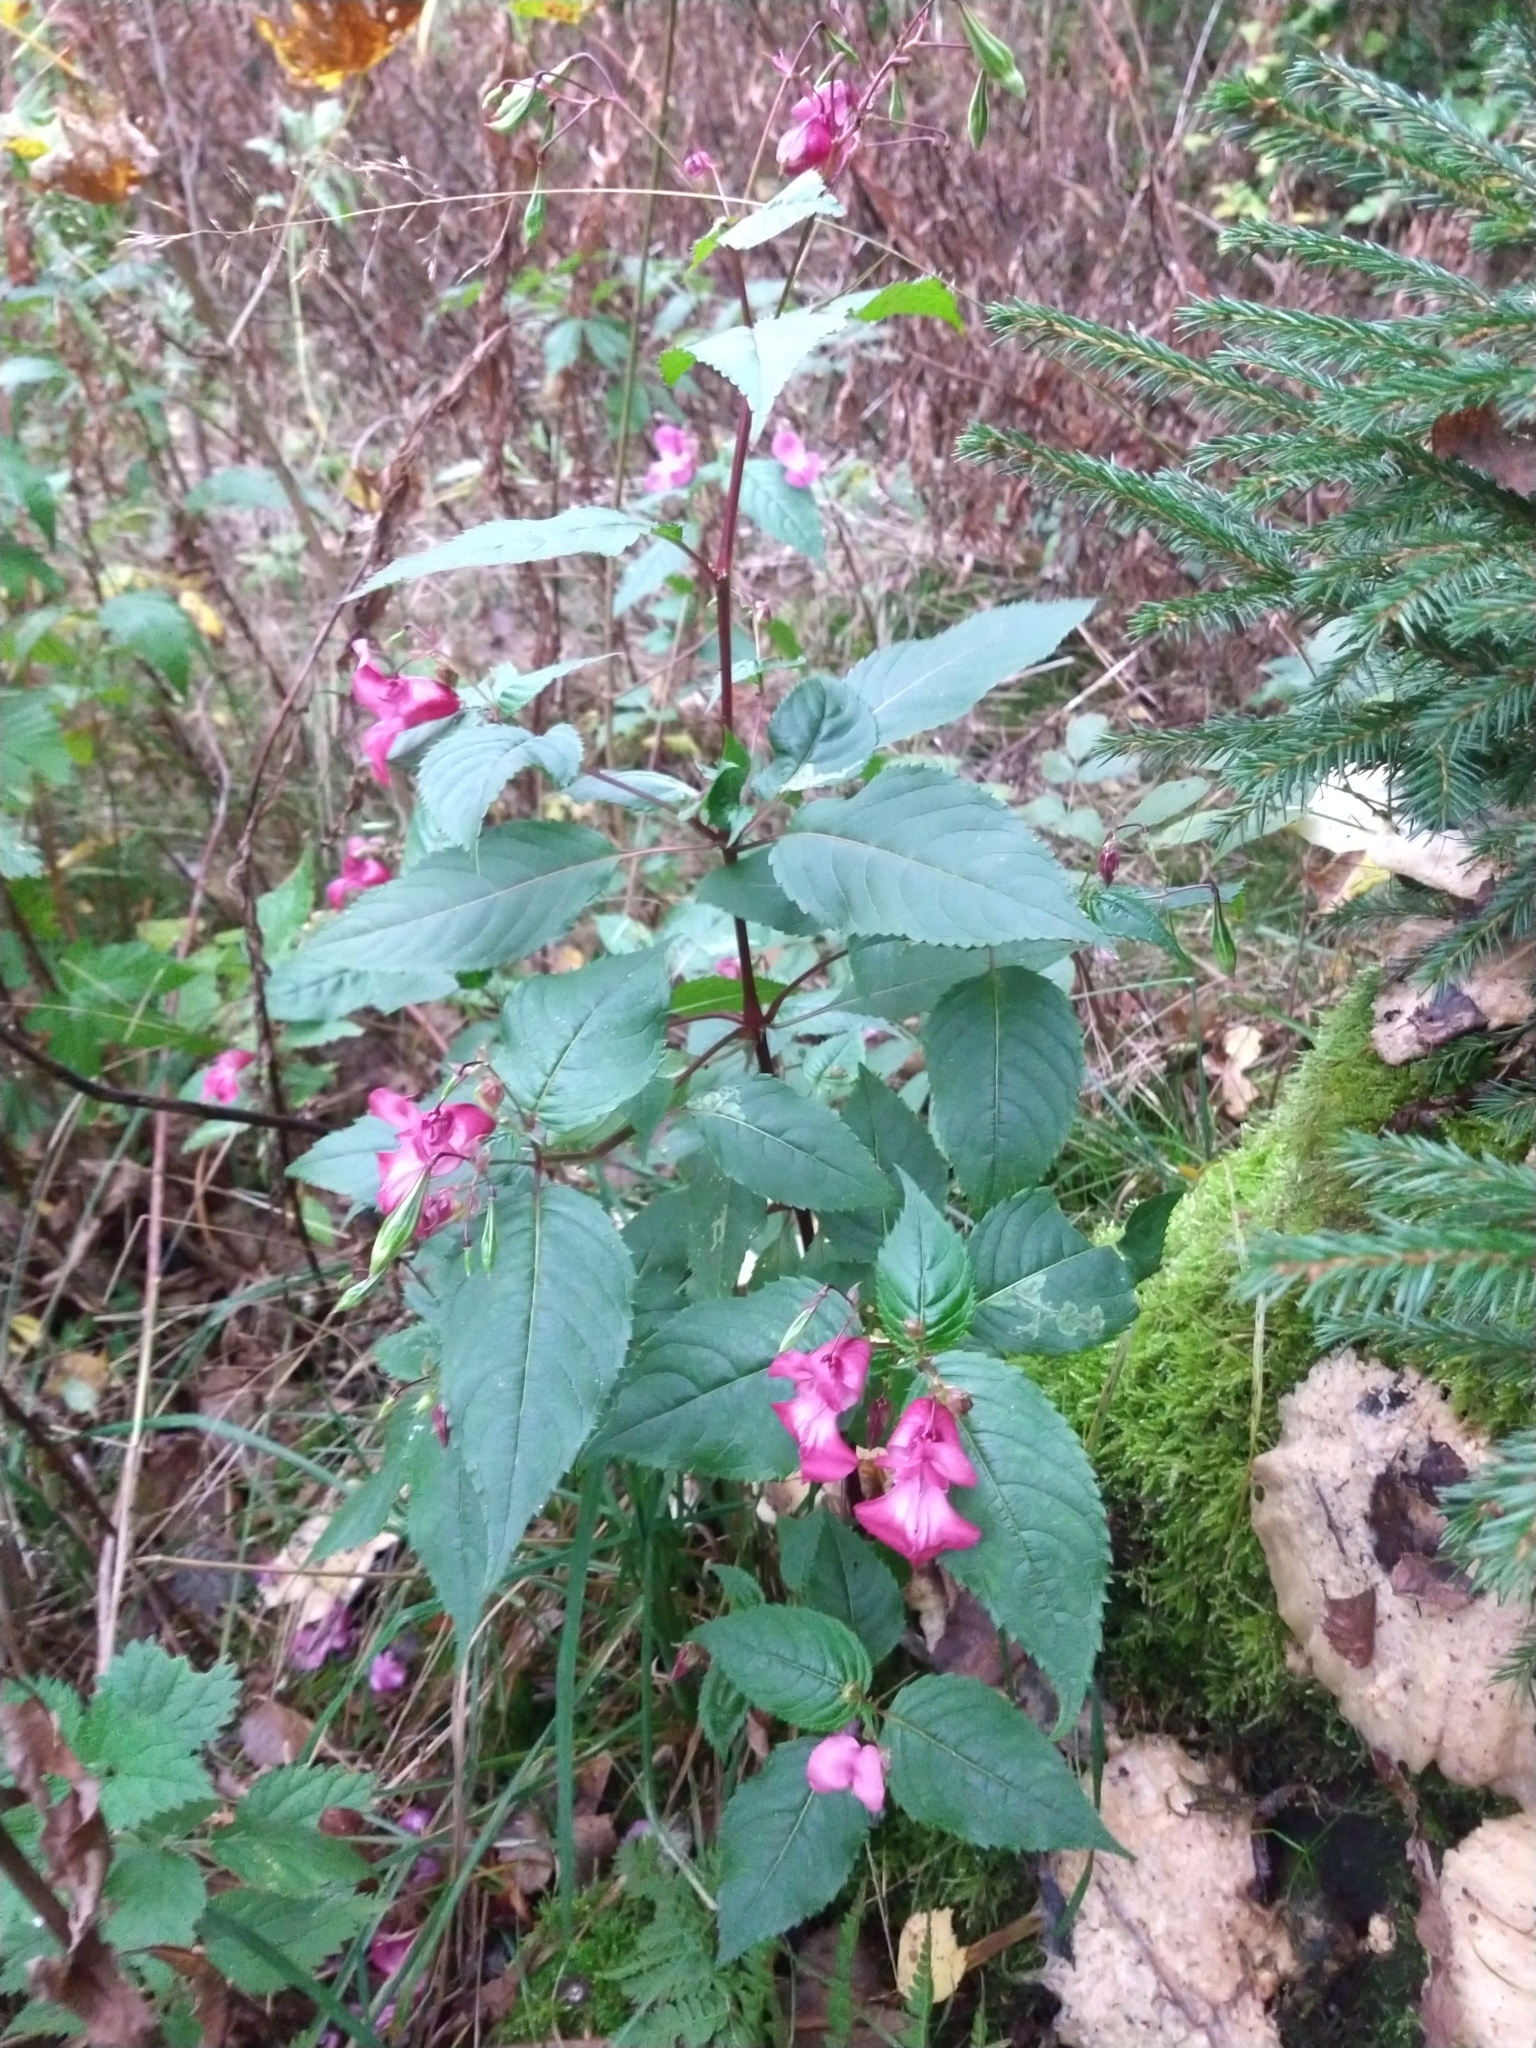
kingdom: Plantae
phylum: Tracheophyta
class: Magnoliopsida
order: Ericales
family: Balsaminaceae
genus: Impatiens
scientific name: Impatiens glandulifera
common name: Himalayan balsam
